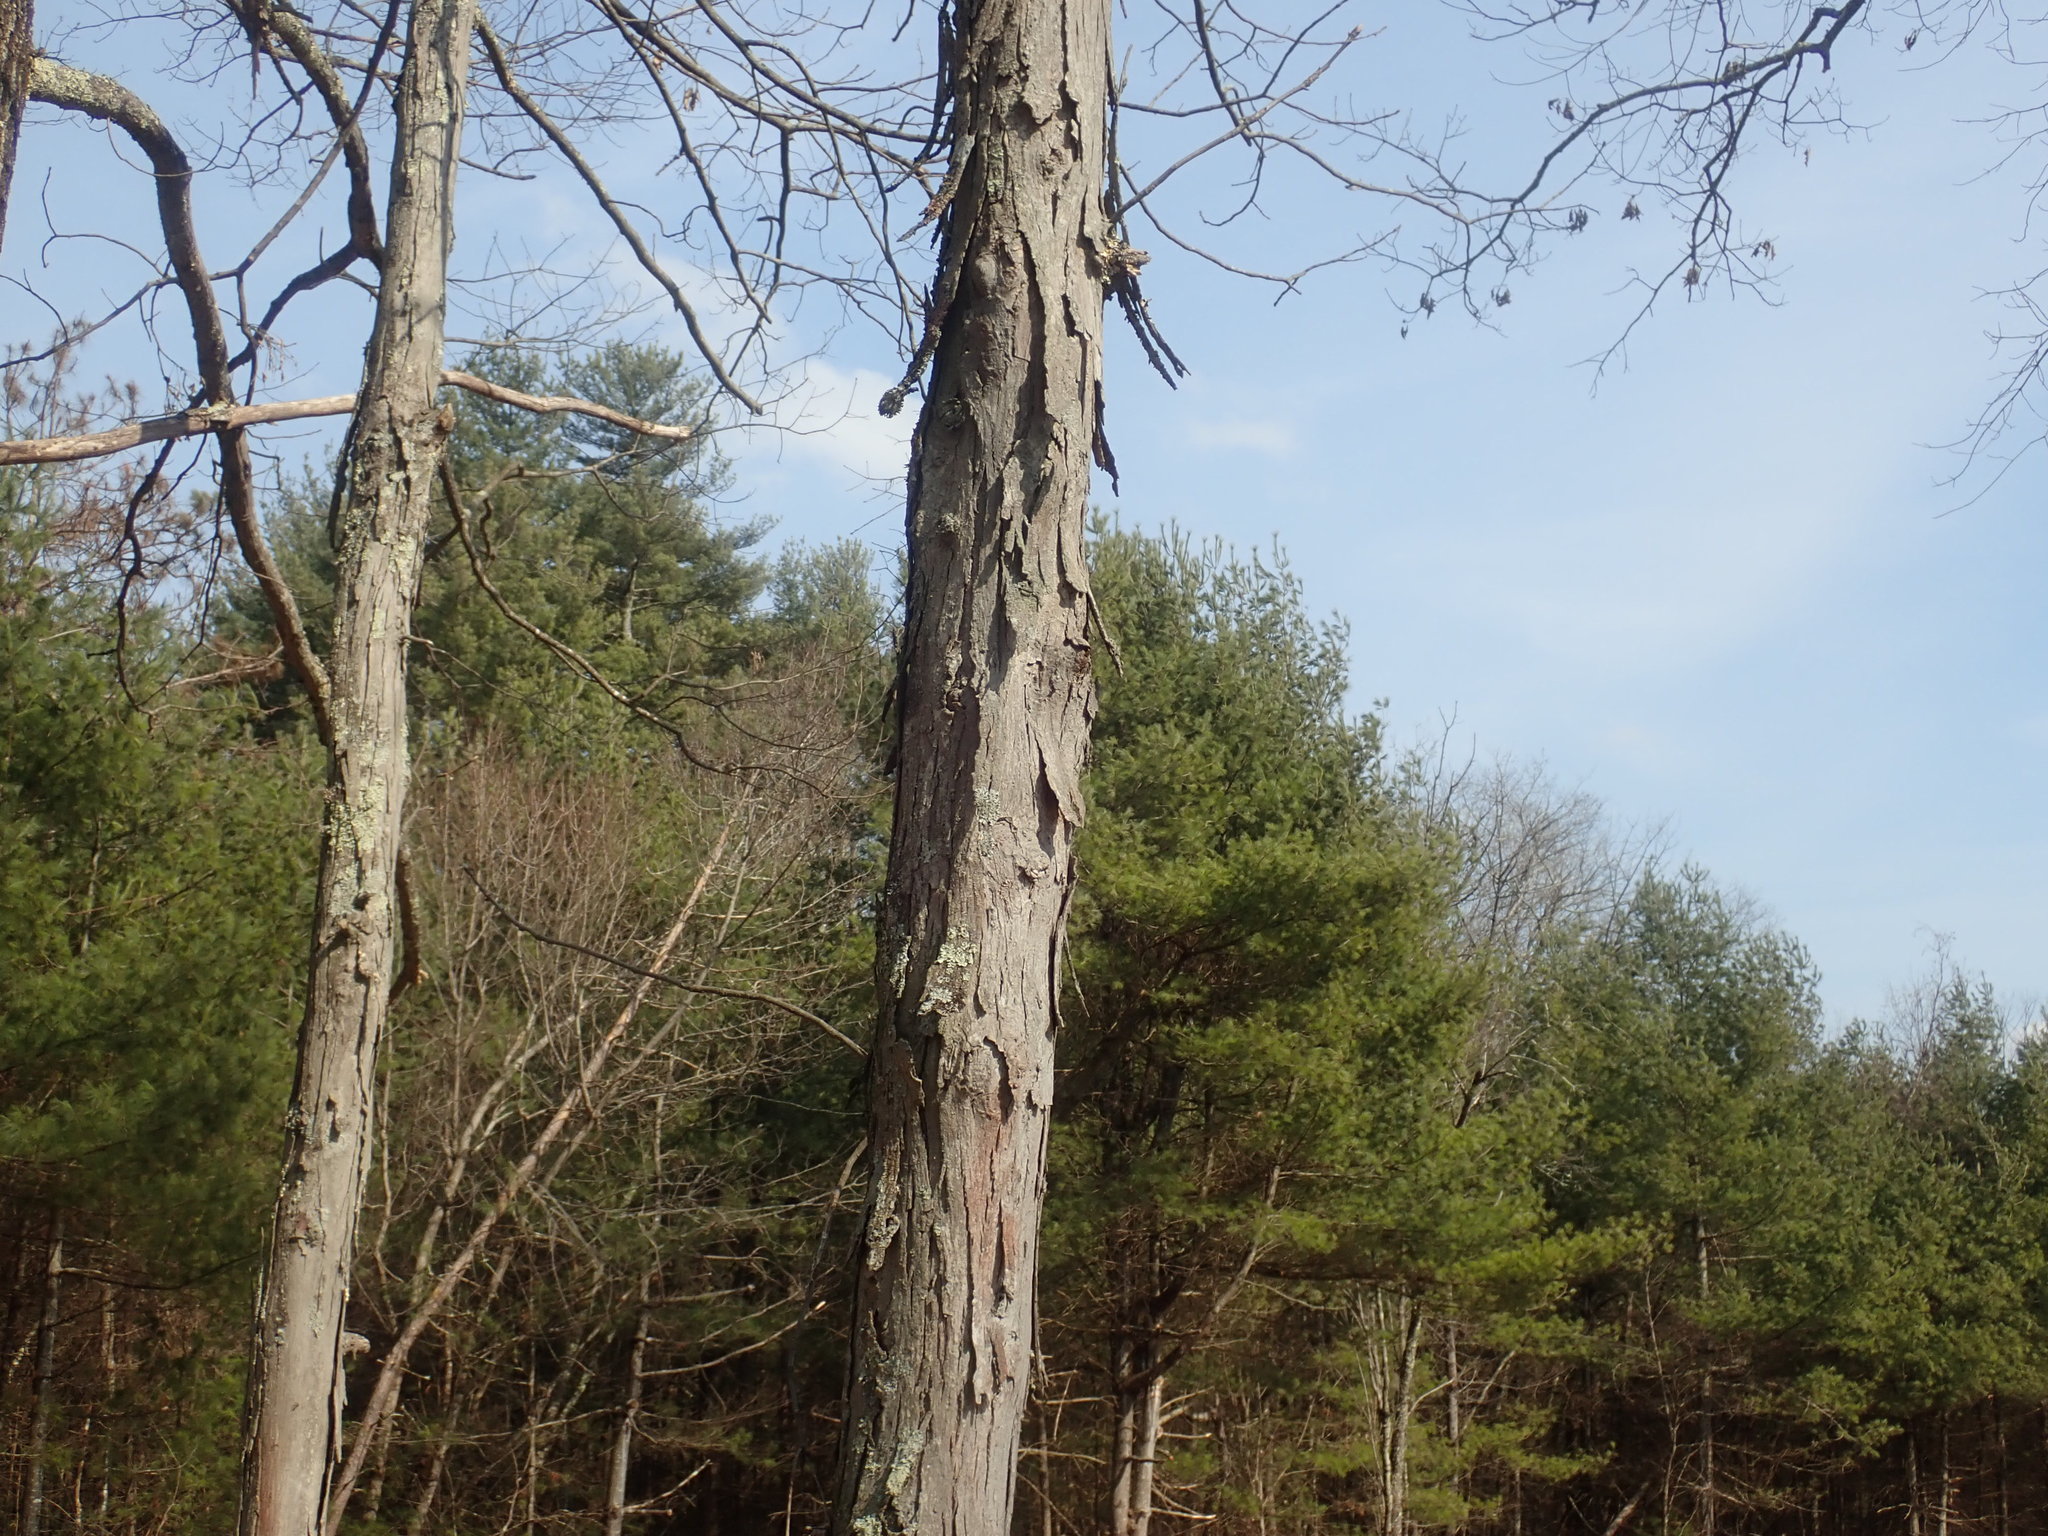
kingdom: Plantae
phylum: Tracheophyta
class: Magnoliopsida
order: Fagales
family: Juglandaceae
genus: Carya
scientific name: Carya ovata
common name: Shagbark hickory
